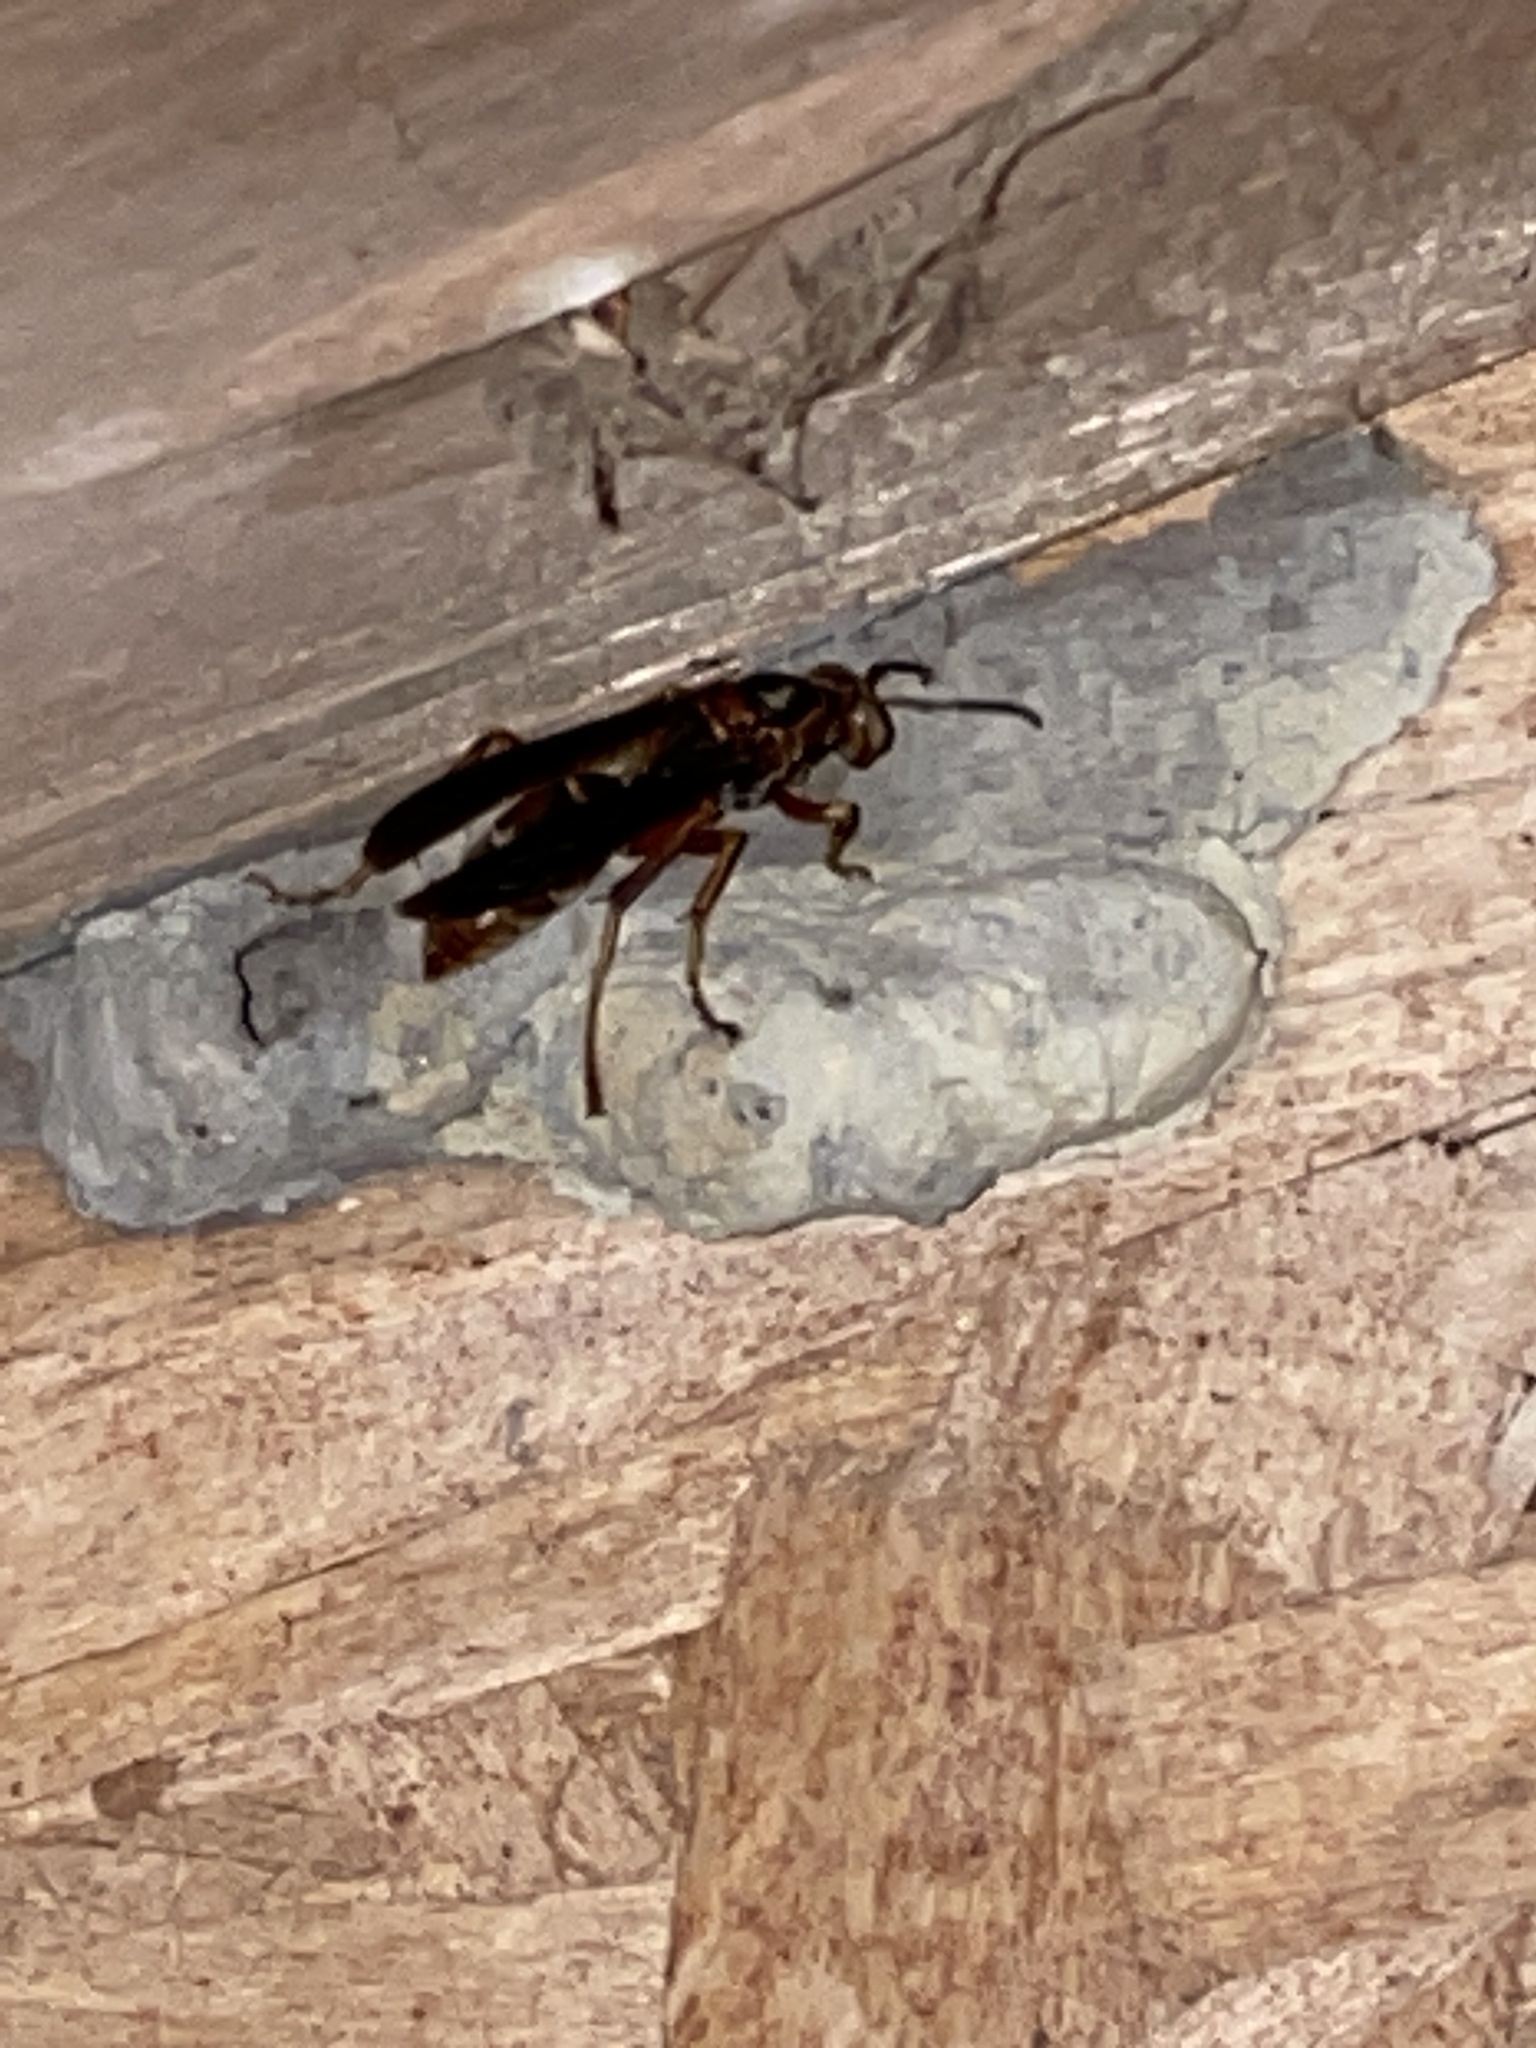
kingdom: Animalia
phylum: Arthropoda
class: Insecta
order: Hymenoptera
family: Eumenidae
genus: Polistes
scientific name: Polistes fuscatus
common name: Dark paper wasp
